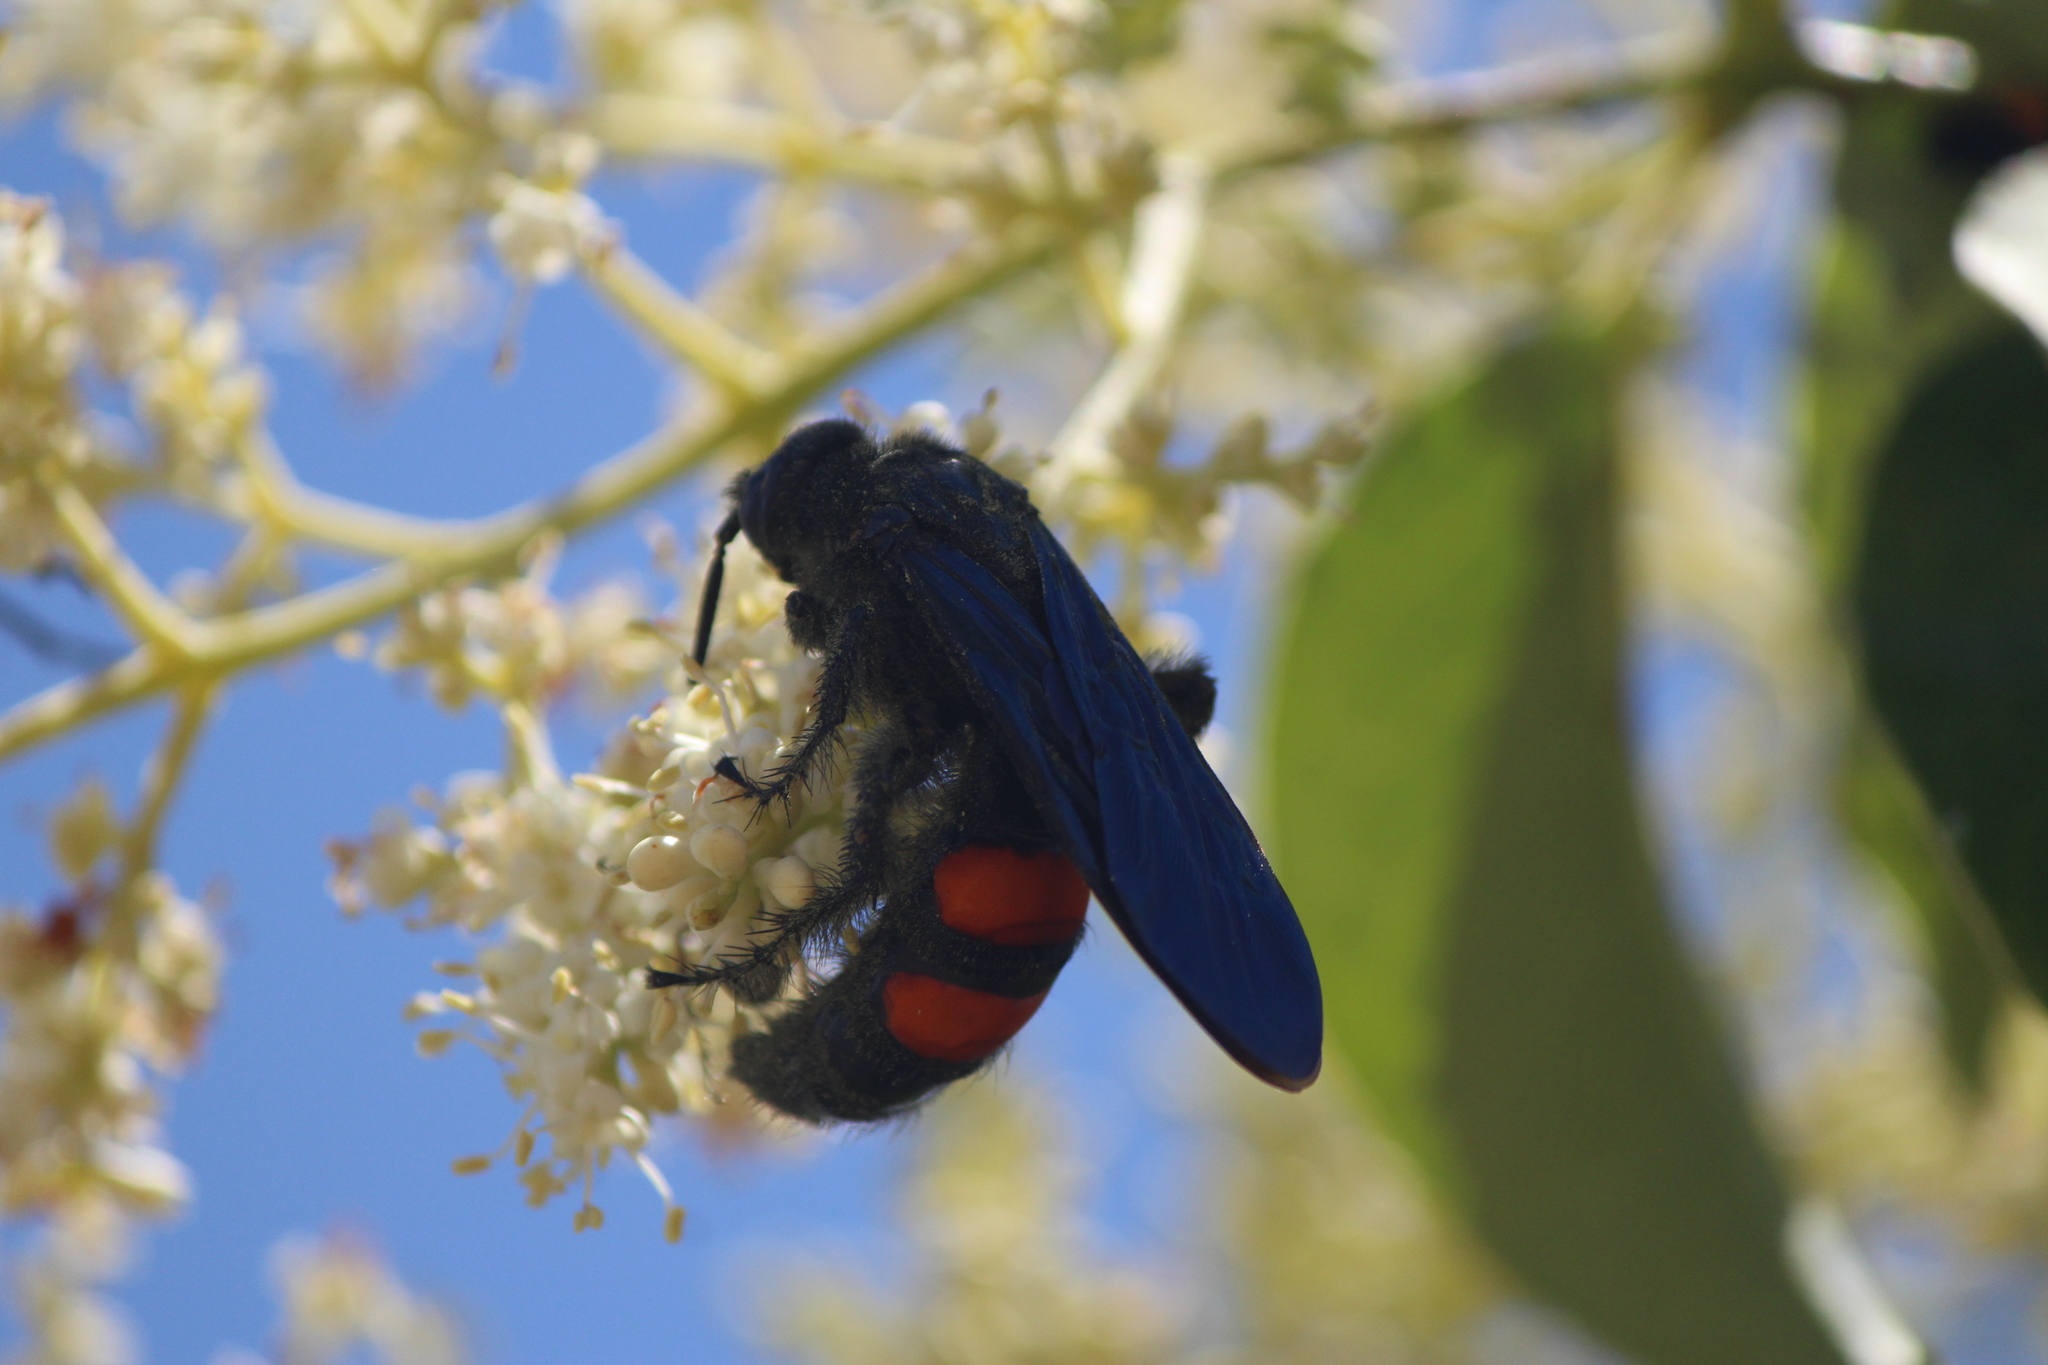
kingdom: Animalia
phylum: Arthropoda
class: Insecta
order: Hymenoptera
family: Scoliidae
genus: Pygodasis
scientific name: Pygodasis ephippium
